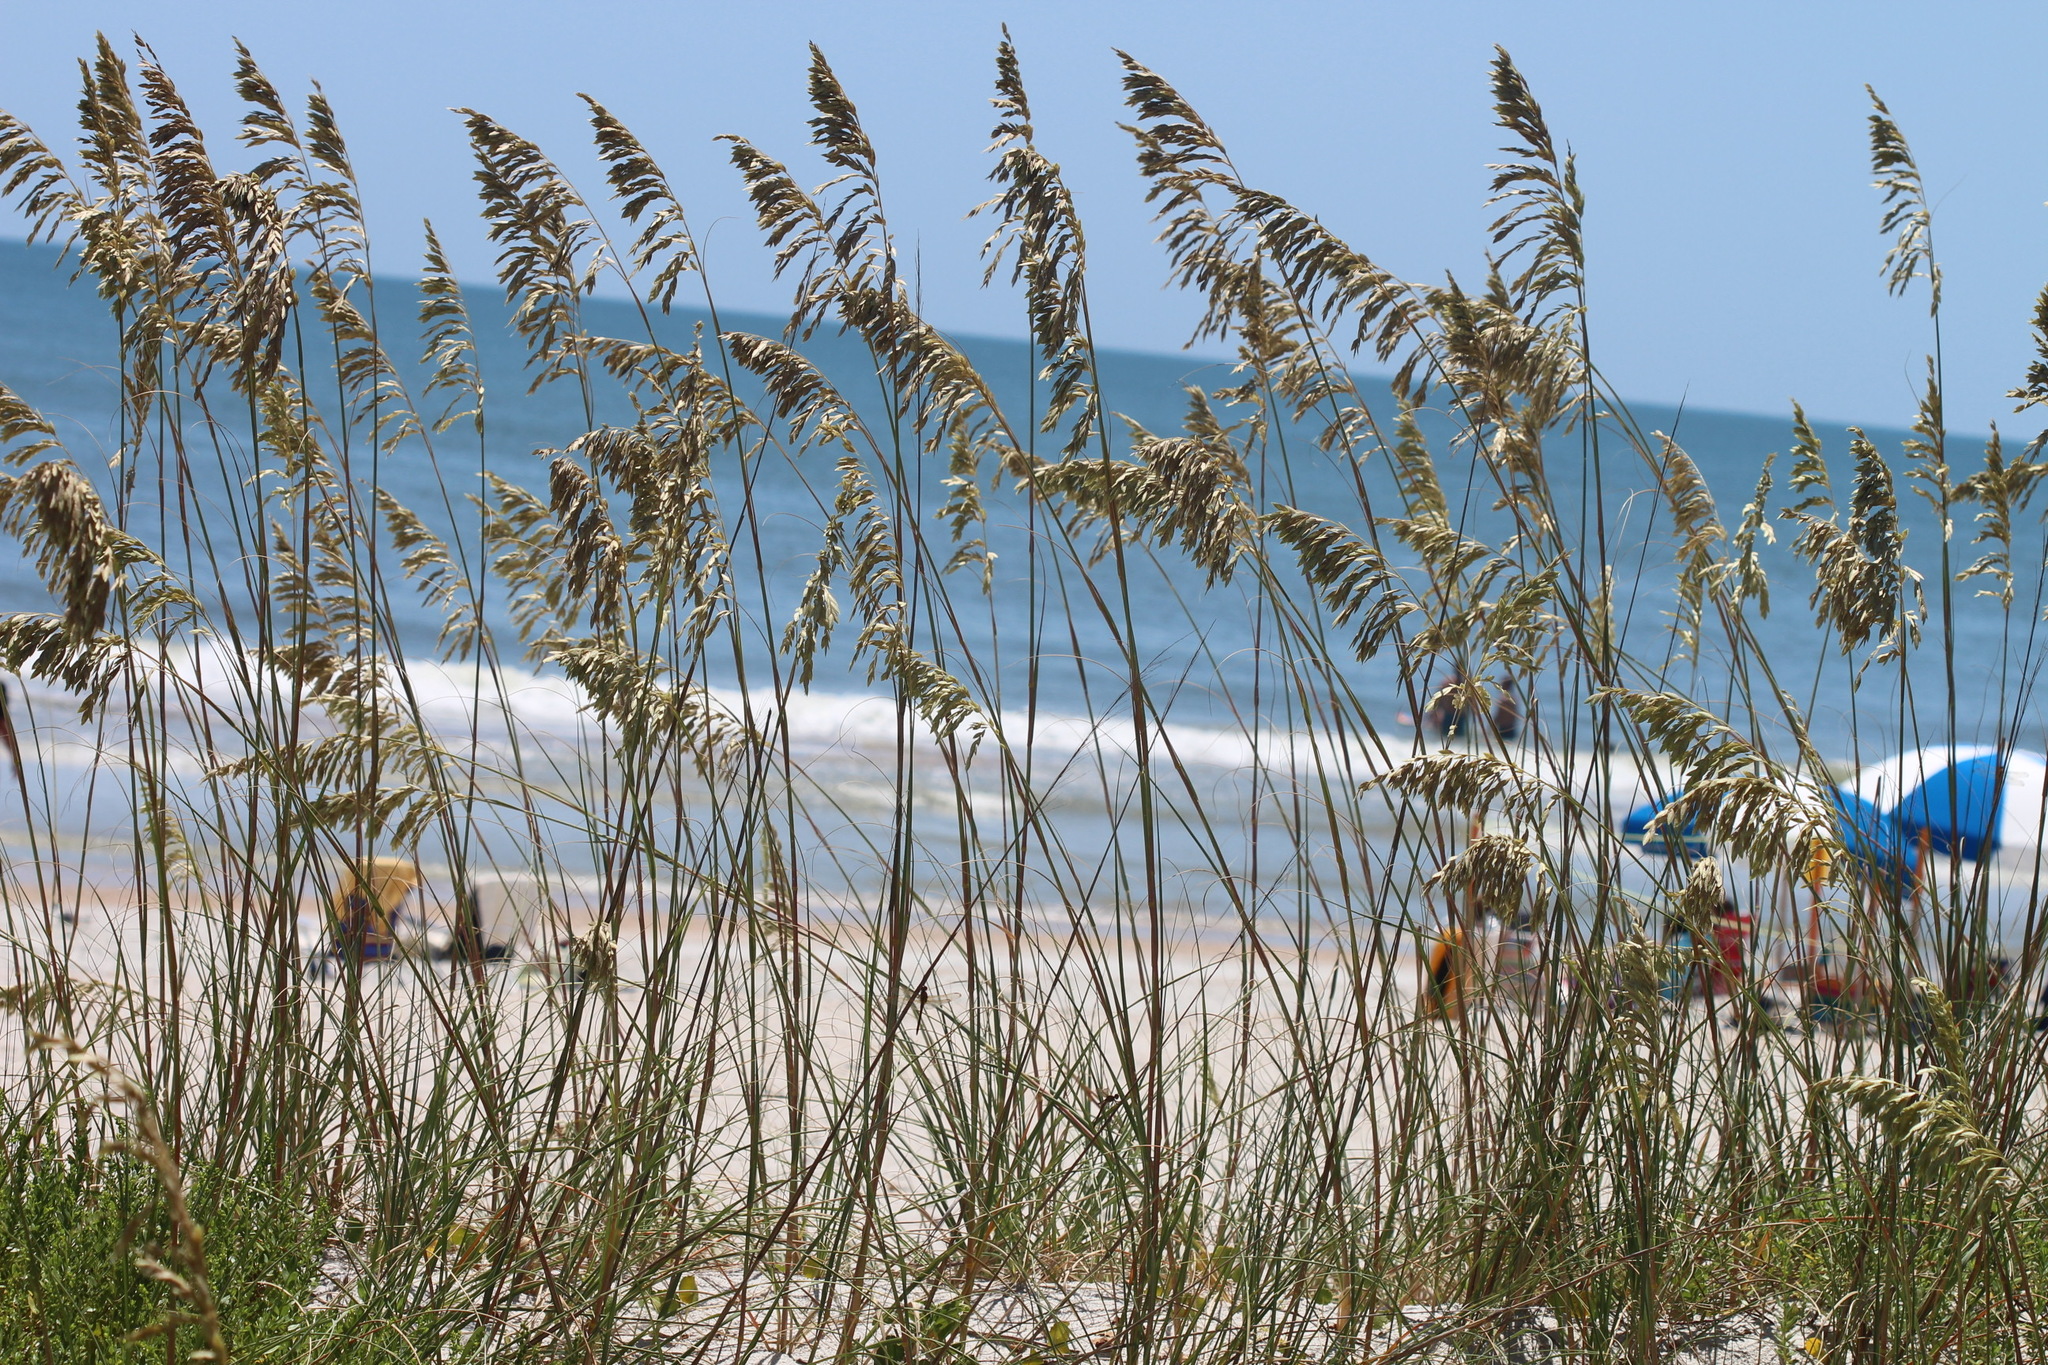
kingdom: Plantae
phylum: Tracheophyta
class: Liliopsida
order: Poales
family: Poaceae
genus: Uniola
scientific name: Uniola paniculata
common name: Seaside-oats
